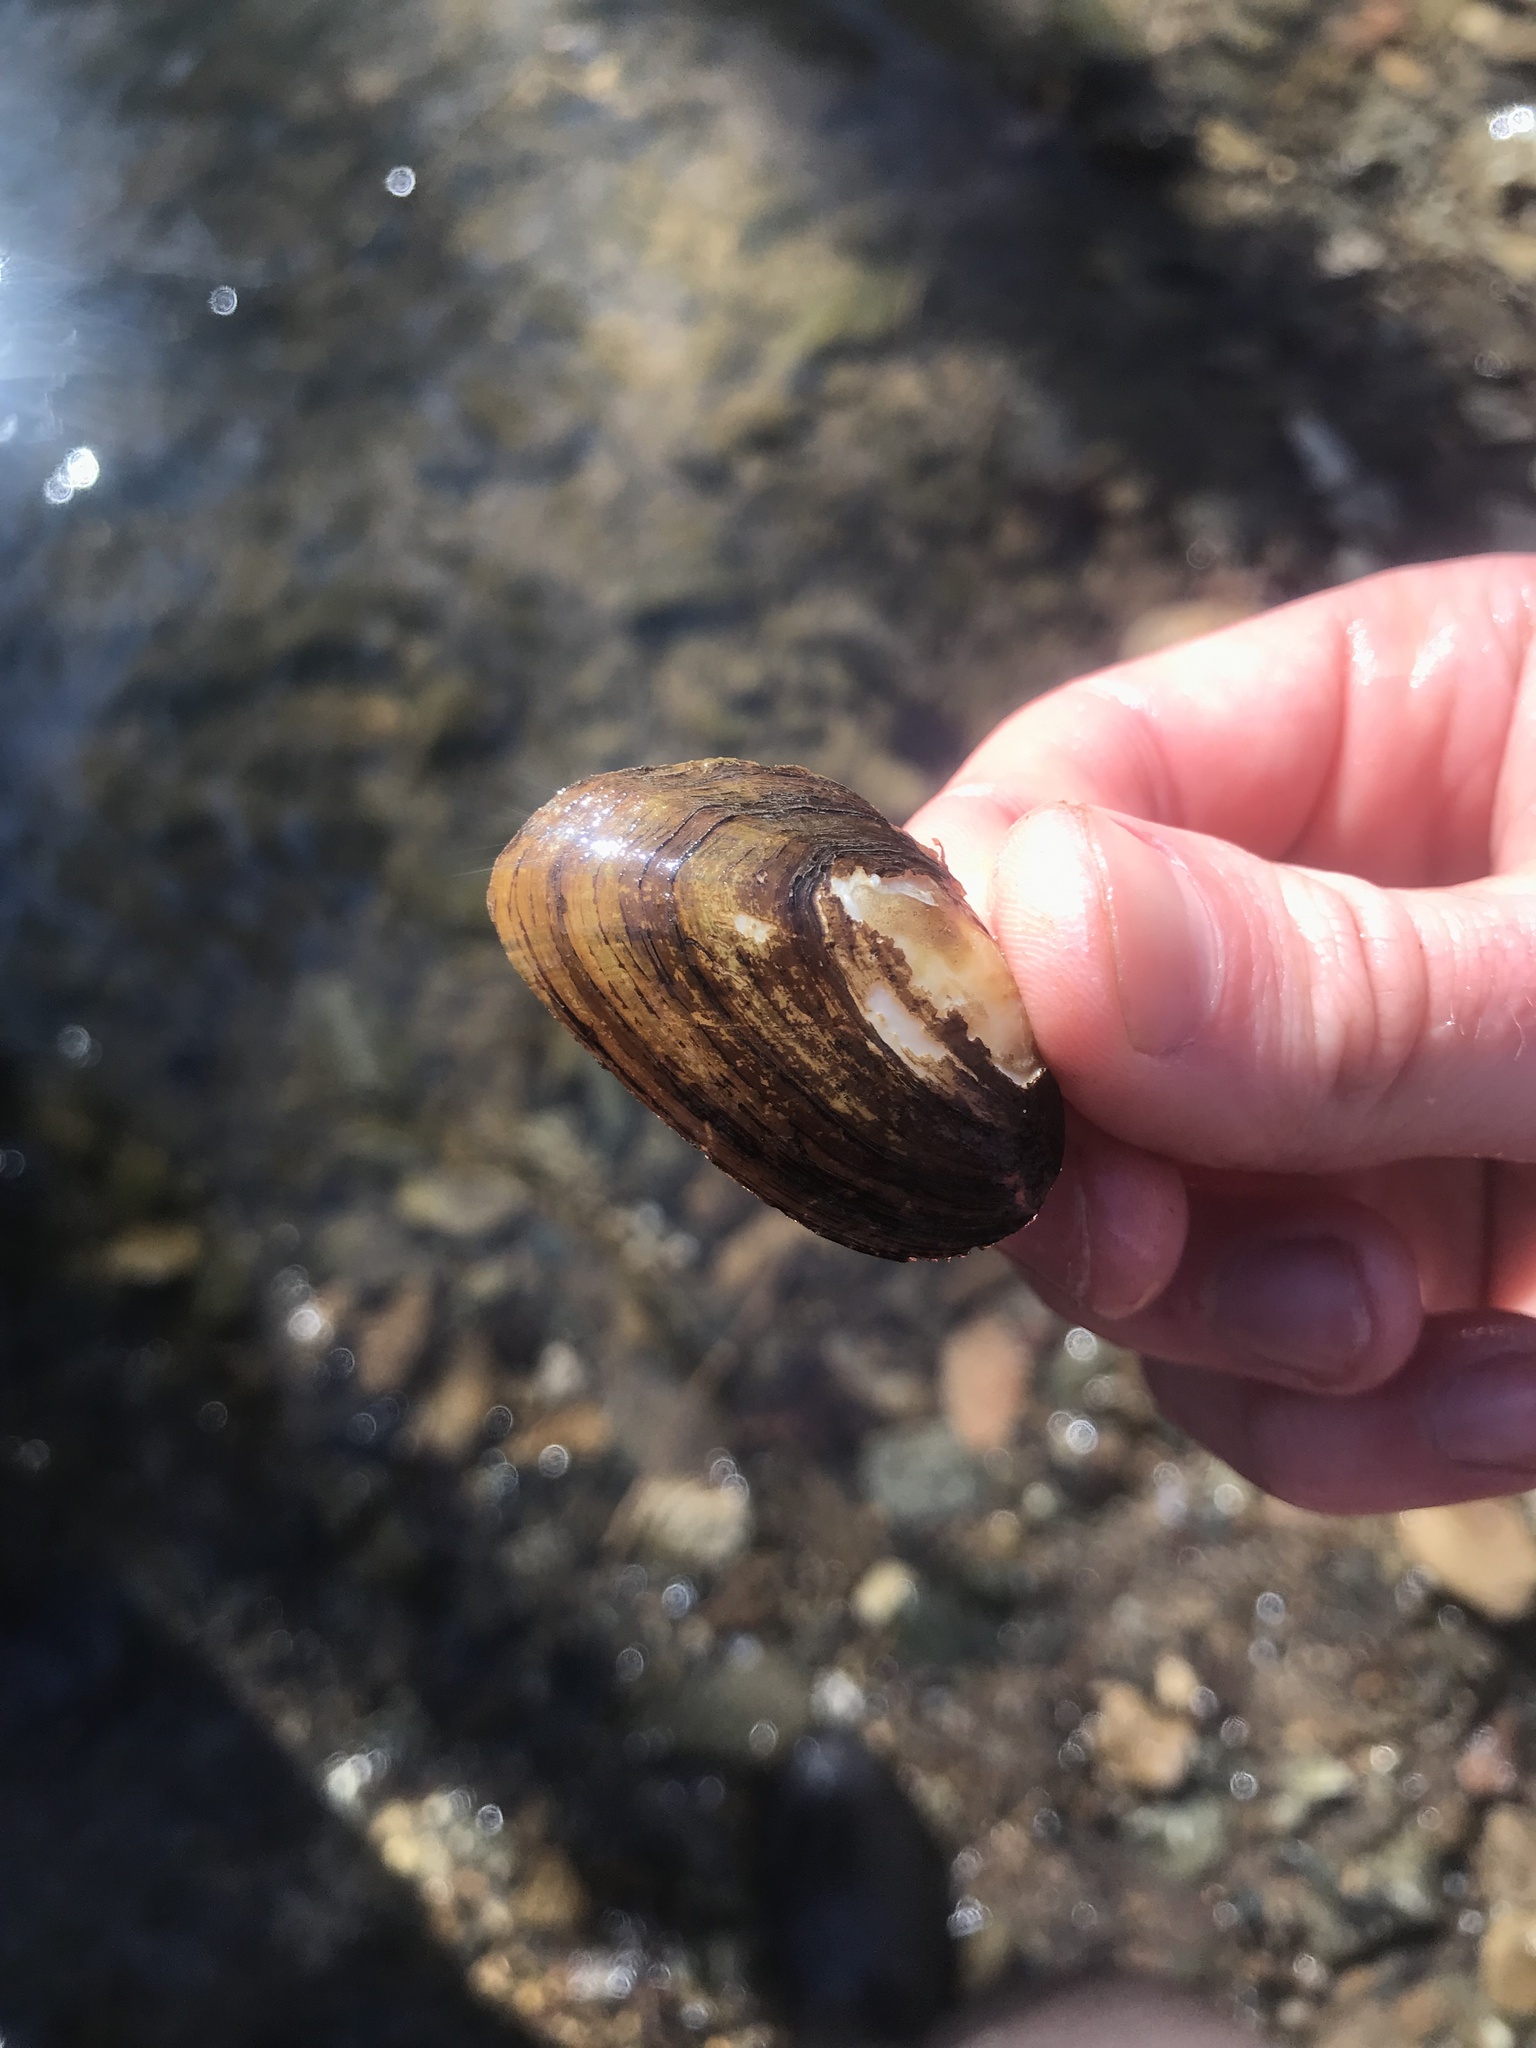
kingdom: Animalia
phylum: Mollusca
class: Bivalvia
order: Unionida
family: Unionidae
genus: Elliptio
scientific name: Elliptio complanata
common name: Eastern elliptio
